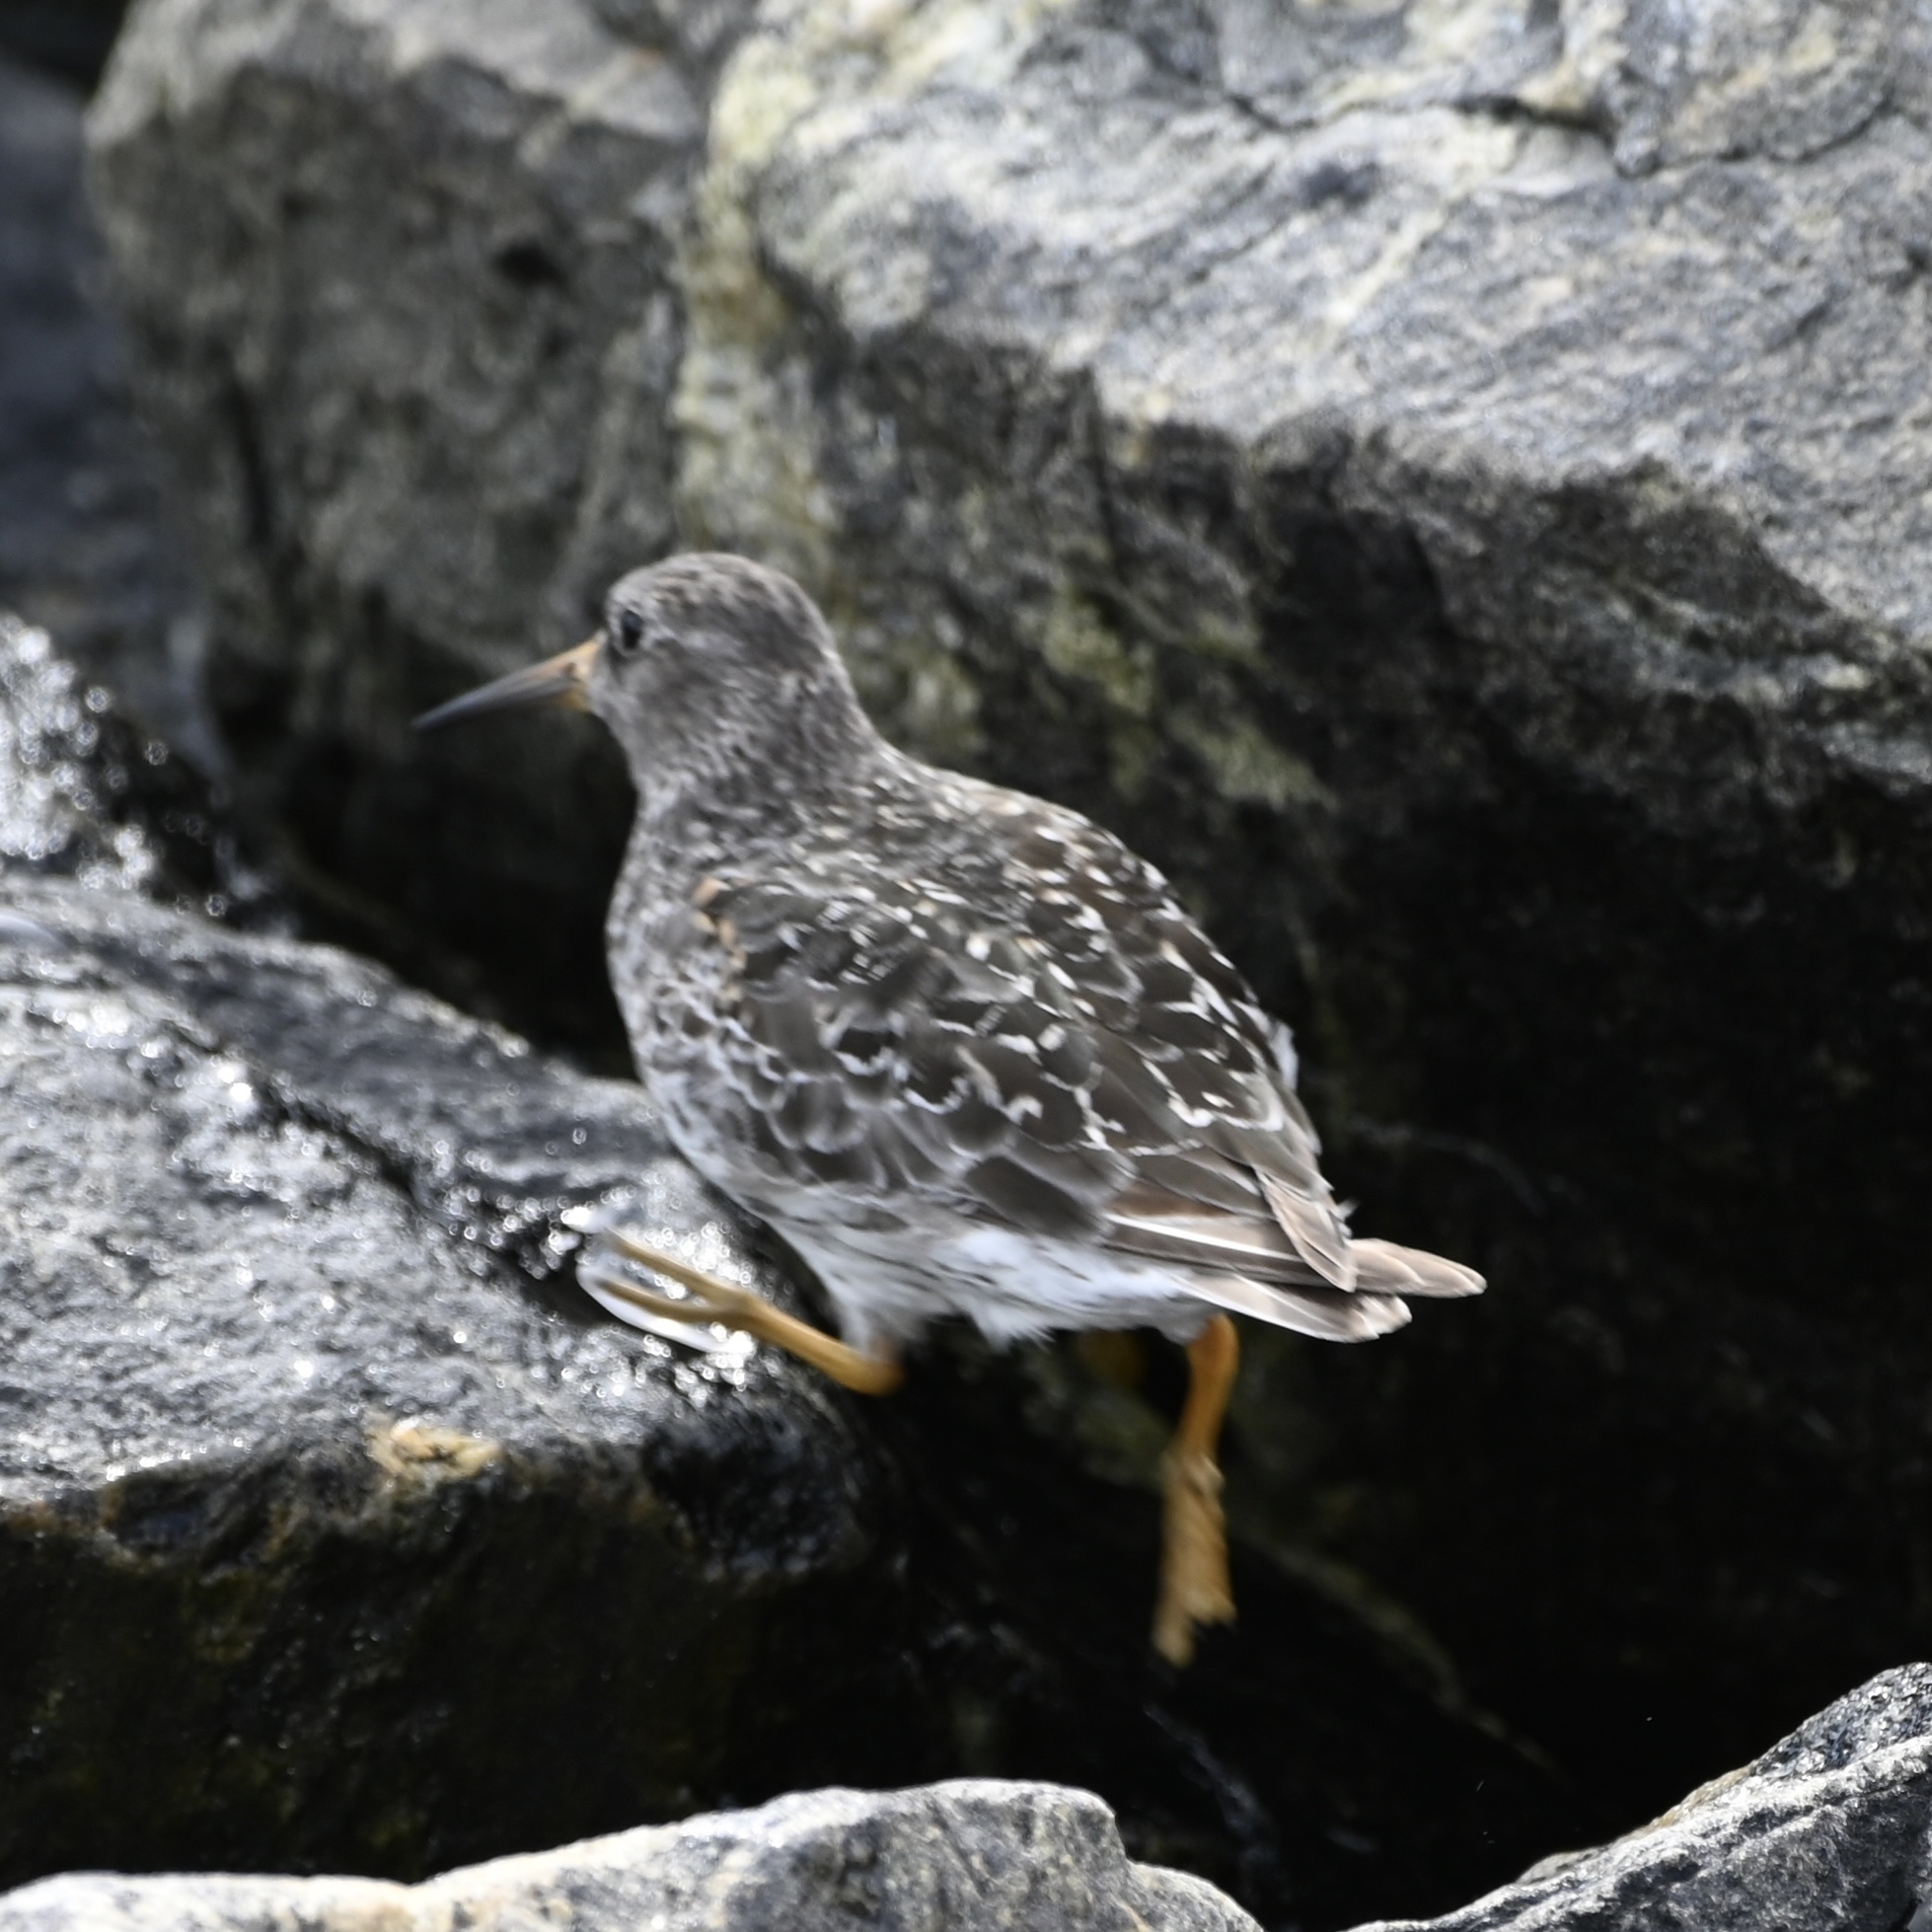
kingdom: Animalia
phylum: Chordata
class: Aves
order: Charadriiformes
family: Scolopacidae
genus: Calidris
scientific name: Calidris maritima
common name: Purple sandpiper
